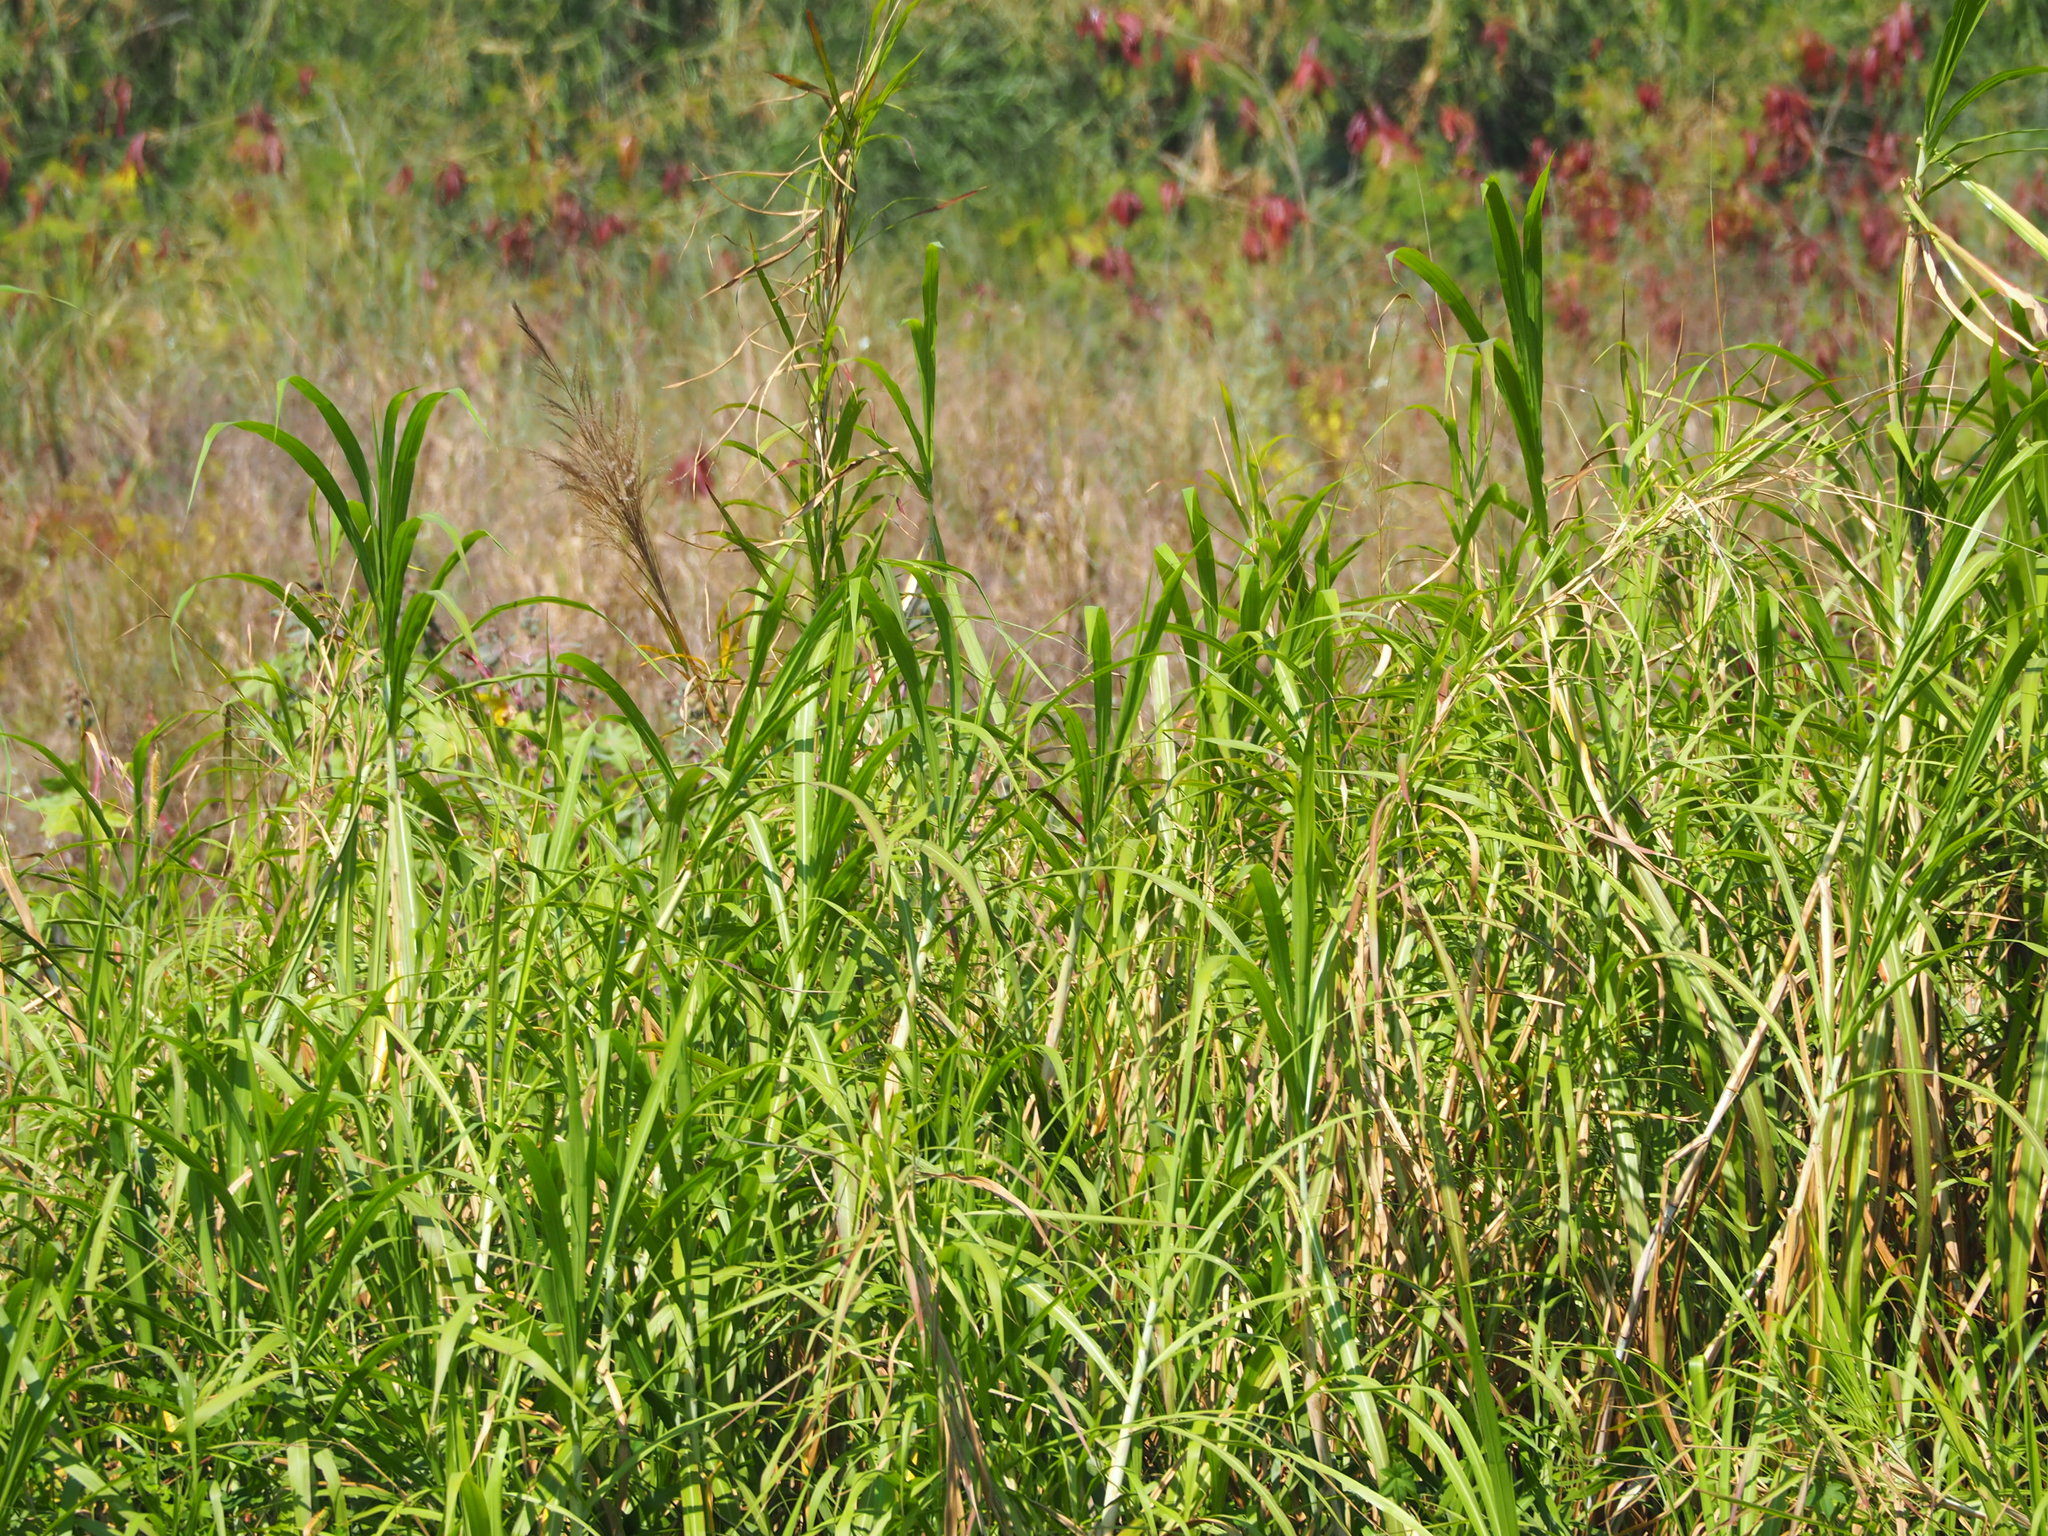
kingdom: Plantae
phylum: Tracheophyta
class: Liliopsida
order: Poales
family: Poaceae
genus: Cenchrus
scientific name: Cenchrus purpureus
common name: Elephant grass
